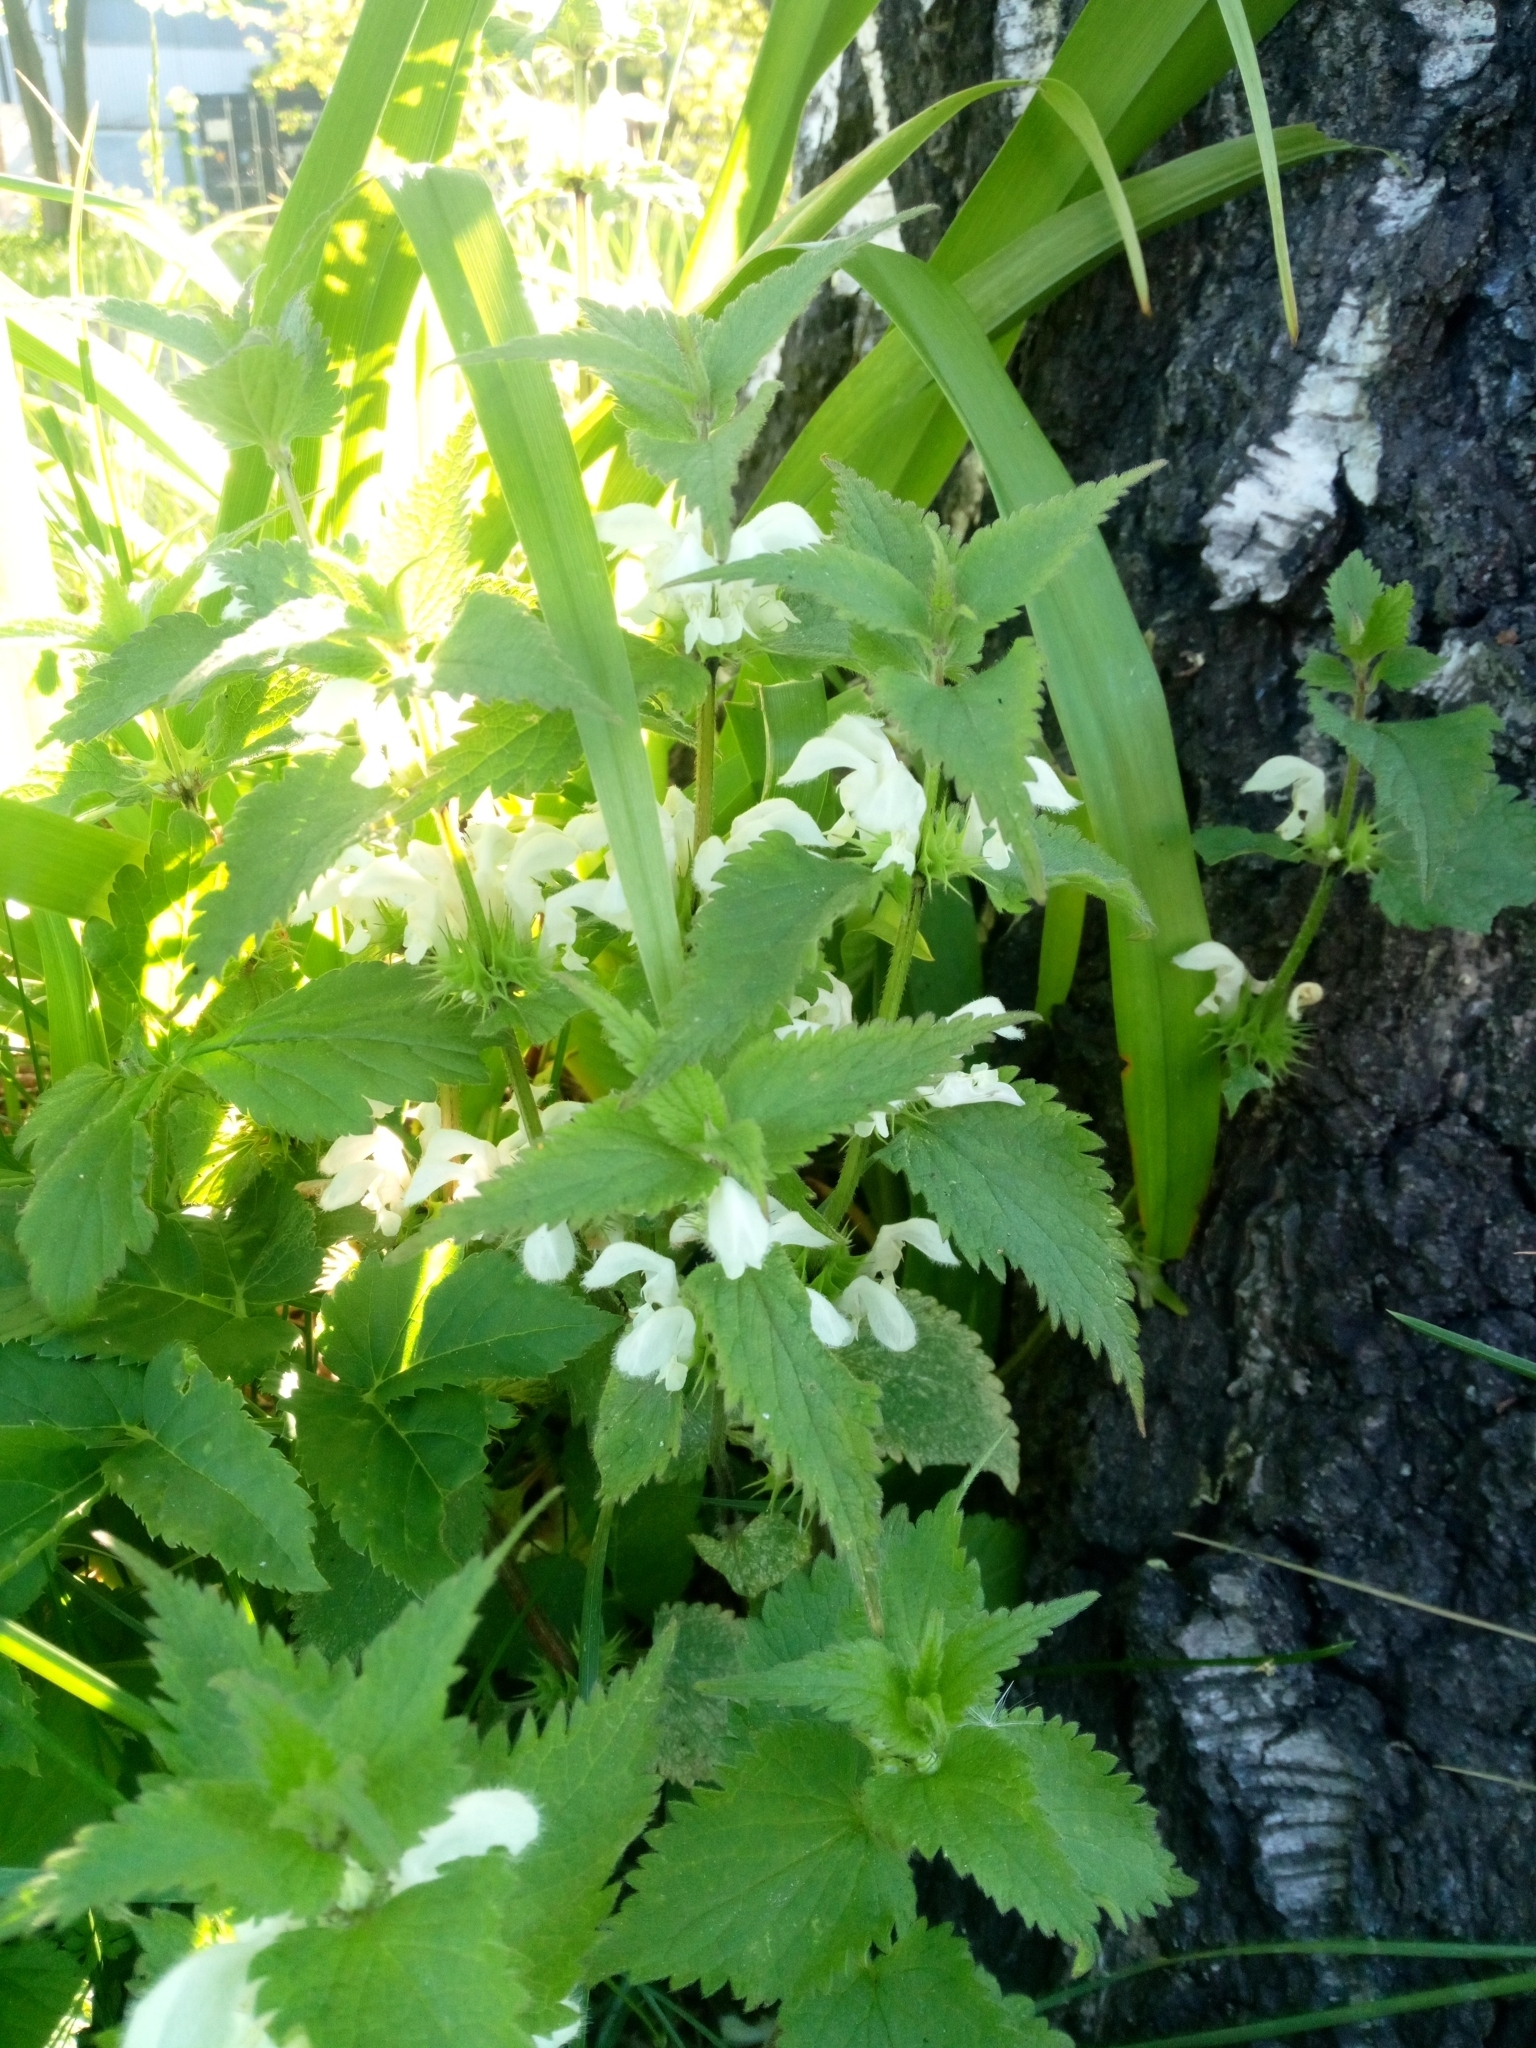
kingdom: Plantae
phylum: Tracheophyta
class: Magnoliopsida
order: Lamiales
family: Lamiaceae
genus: Lamium
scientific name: Lamium album
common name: White dead-nettle
